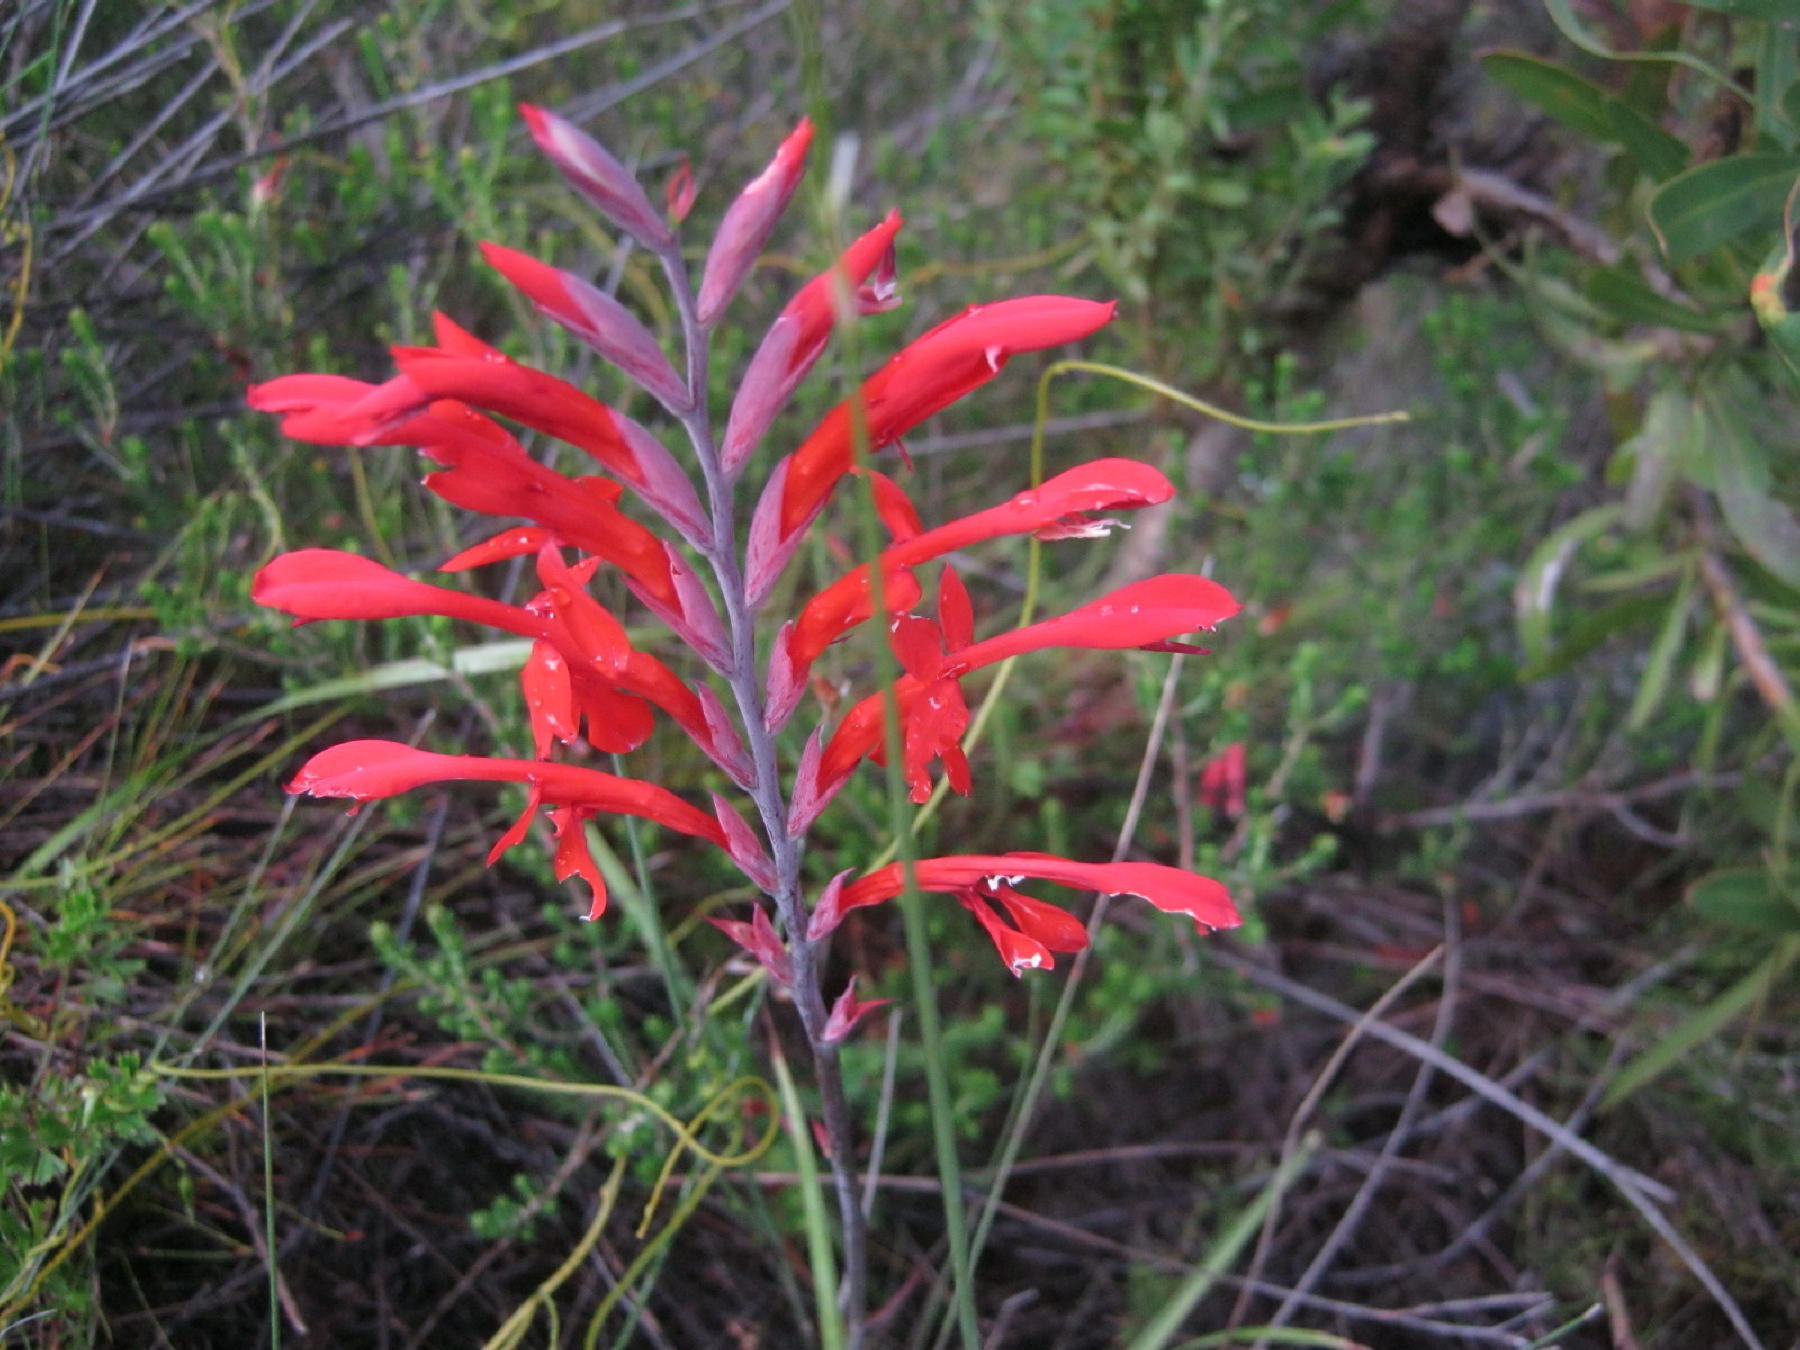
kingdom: Plantae
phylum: Tracheophyta
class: Liliopsida
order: Asparagales
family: Iridaceae
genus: Tritoniopsis
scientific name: Tritoniopsis caffra
